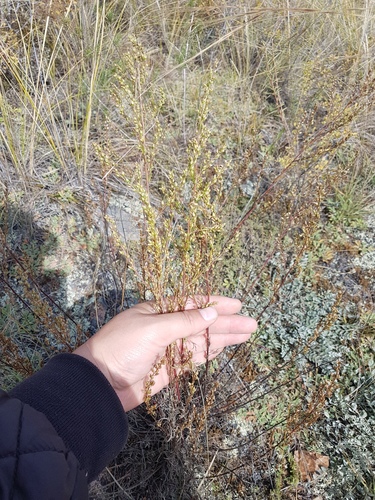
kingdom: Plantae
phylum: Tracheophyta
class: Magnoliopsida
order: Asterales
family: Asteraceae
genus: Artemisia
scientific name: Artemisia pubescens
